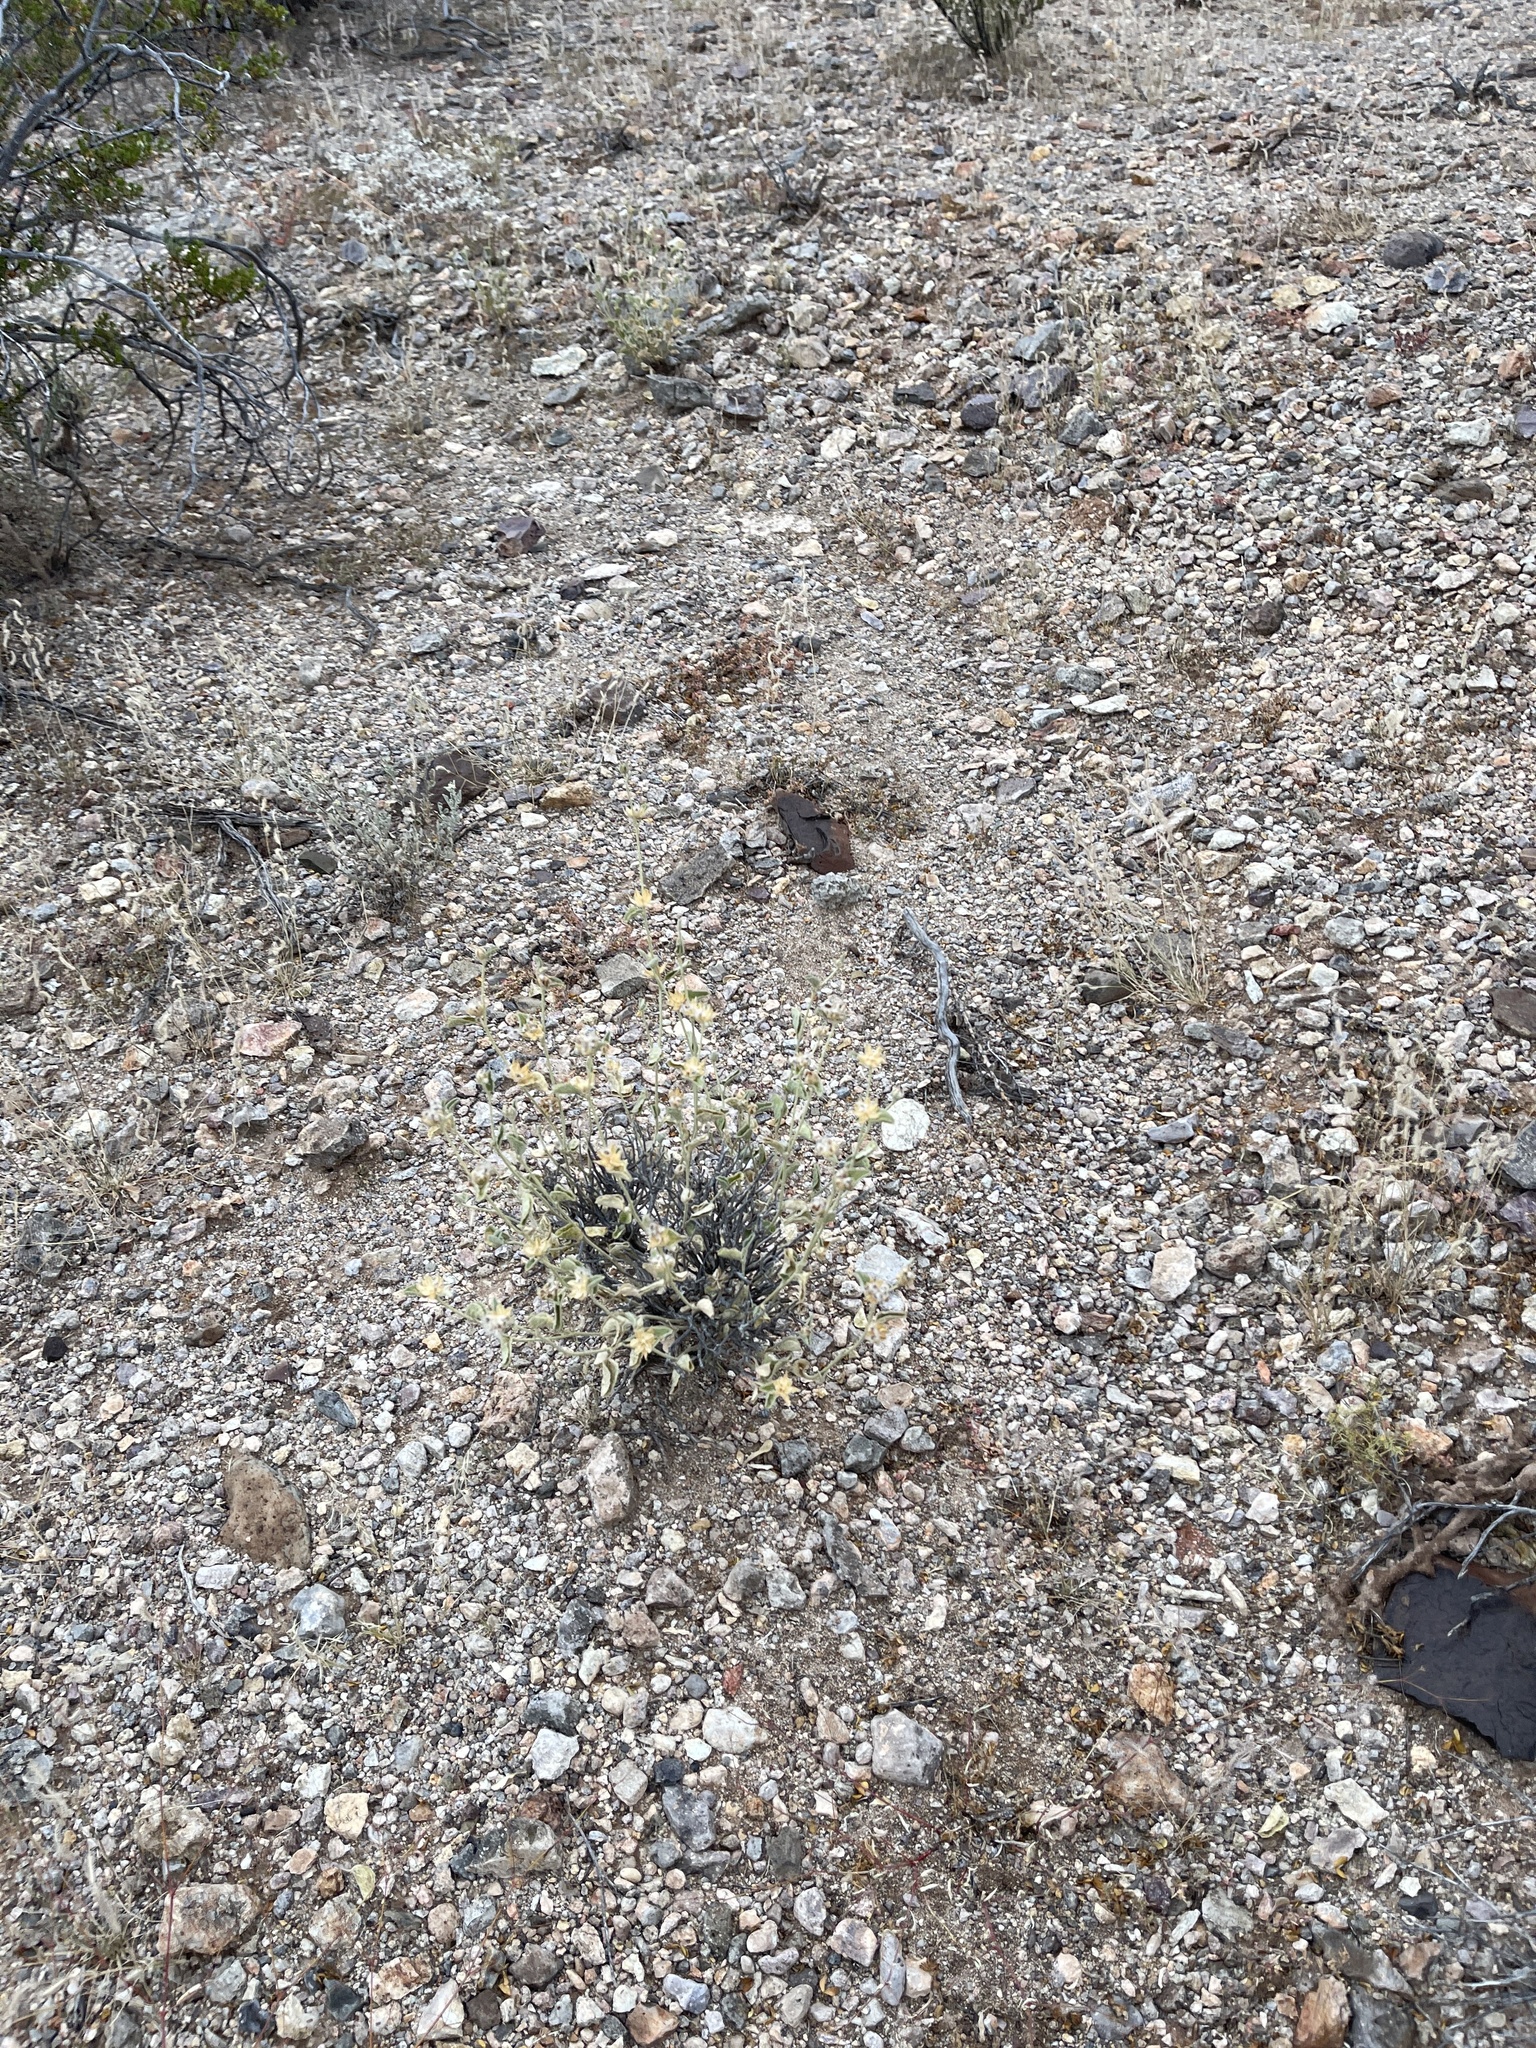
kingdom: Plantae
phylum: Tracheophyta
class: Magnoliopsida
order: Malvales
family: Malvaceae
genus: Hibiscus
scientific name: Hibiscus denudatus
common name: Paleface
